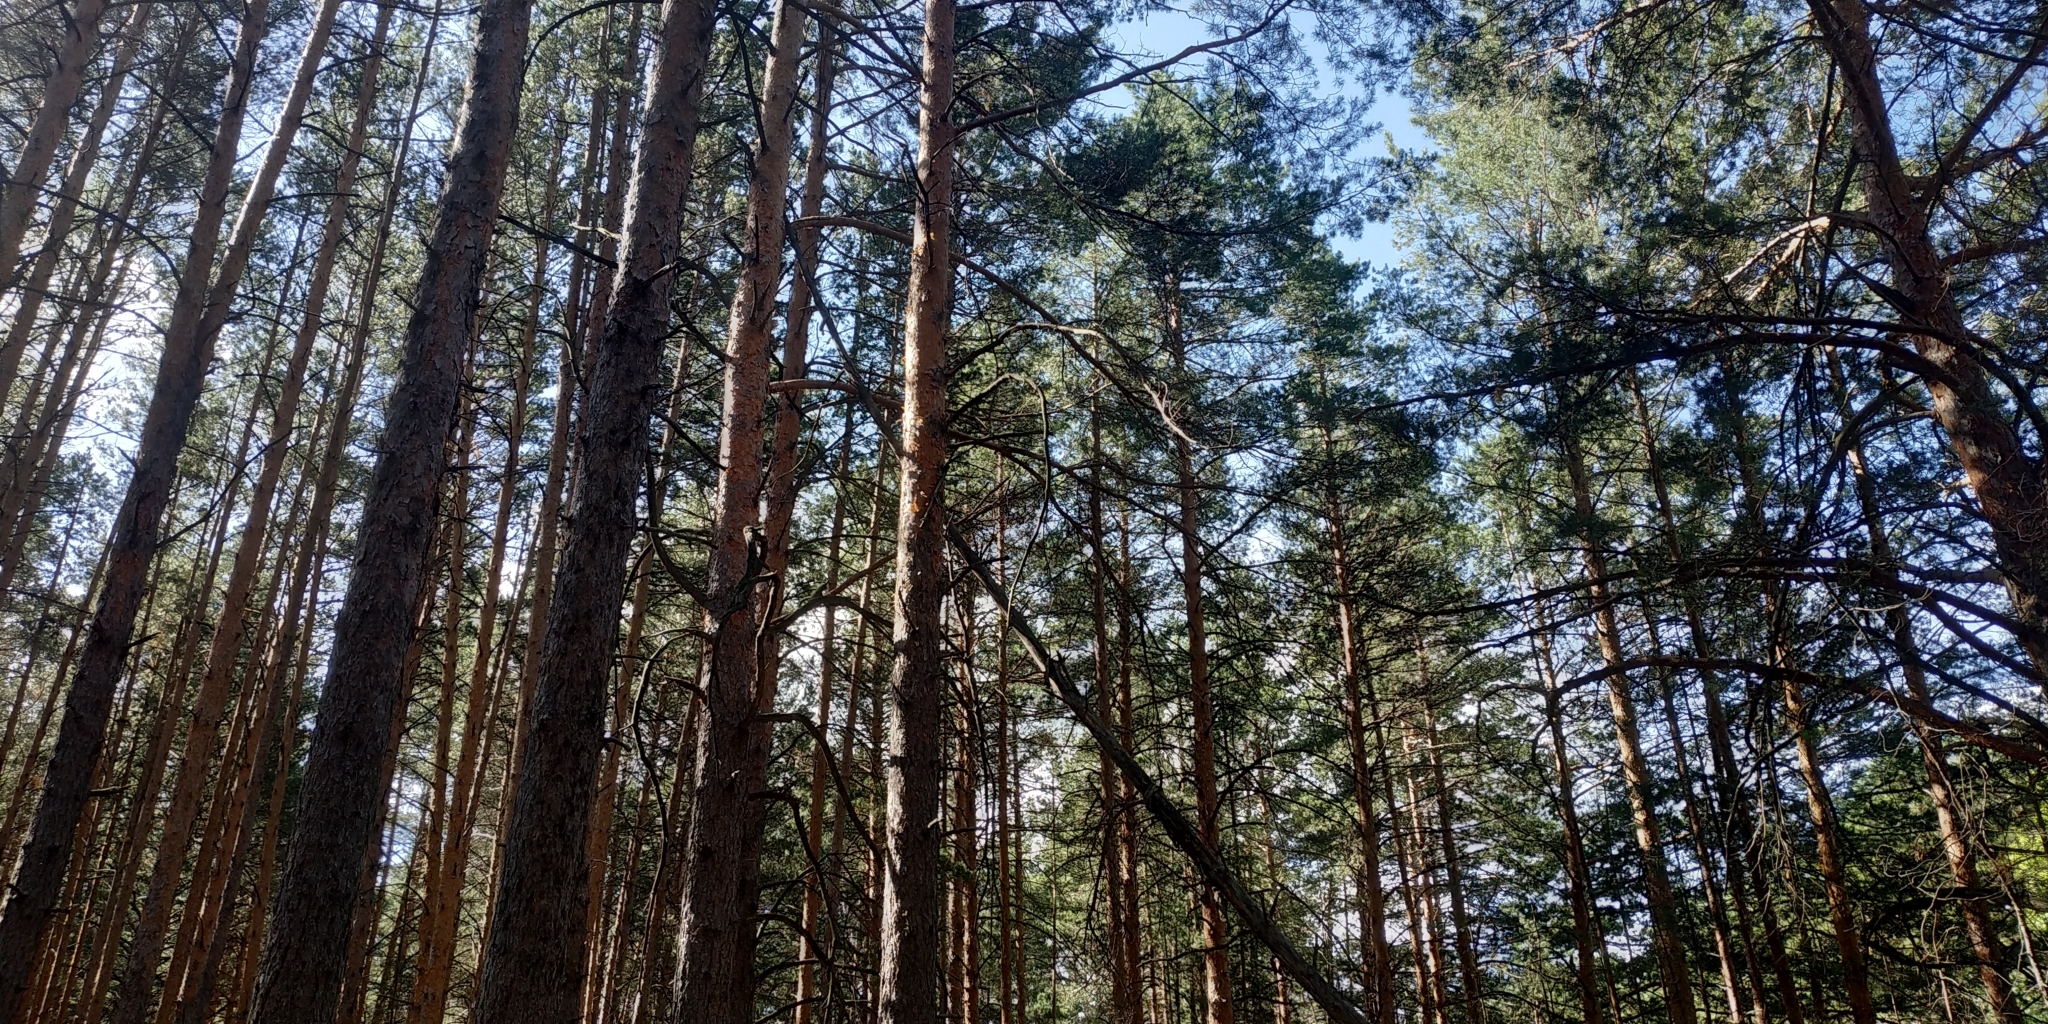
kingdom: Plantae
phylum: Tracheophyta
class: Pinopsida
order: Pinales
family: Pinaceae
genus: Pinus
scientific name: Pinus sylvestris
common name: Scots pine
